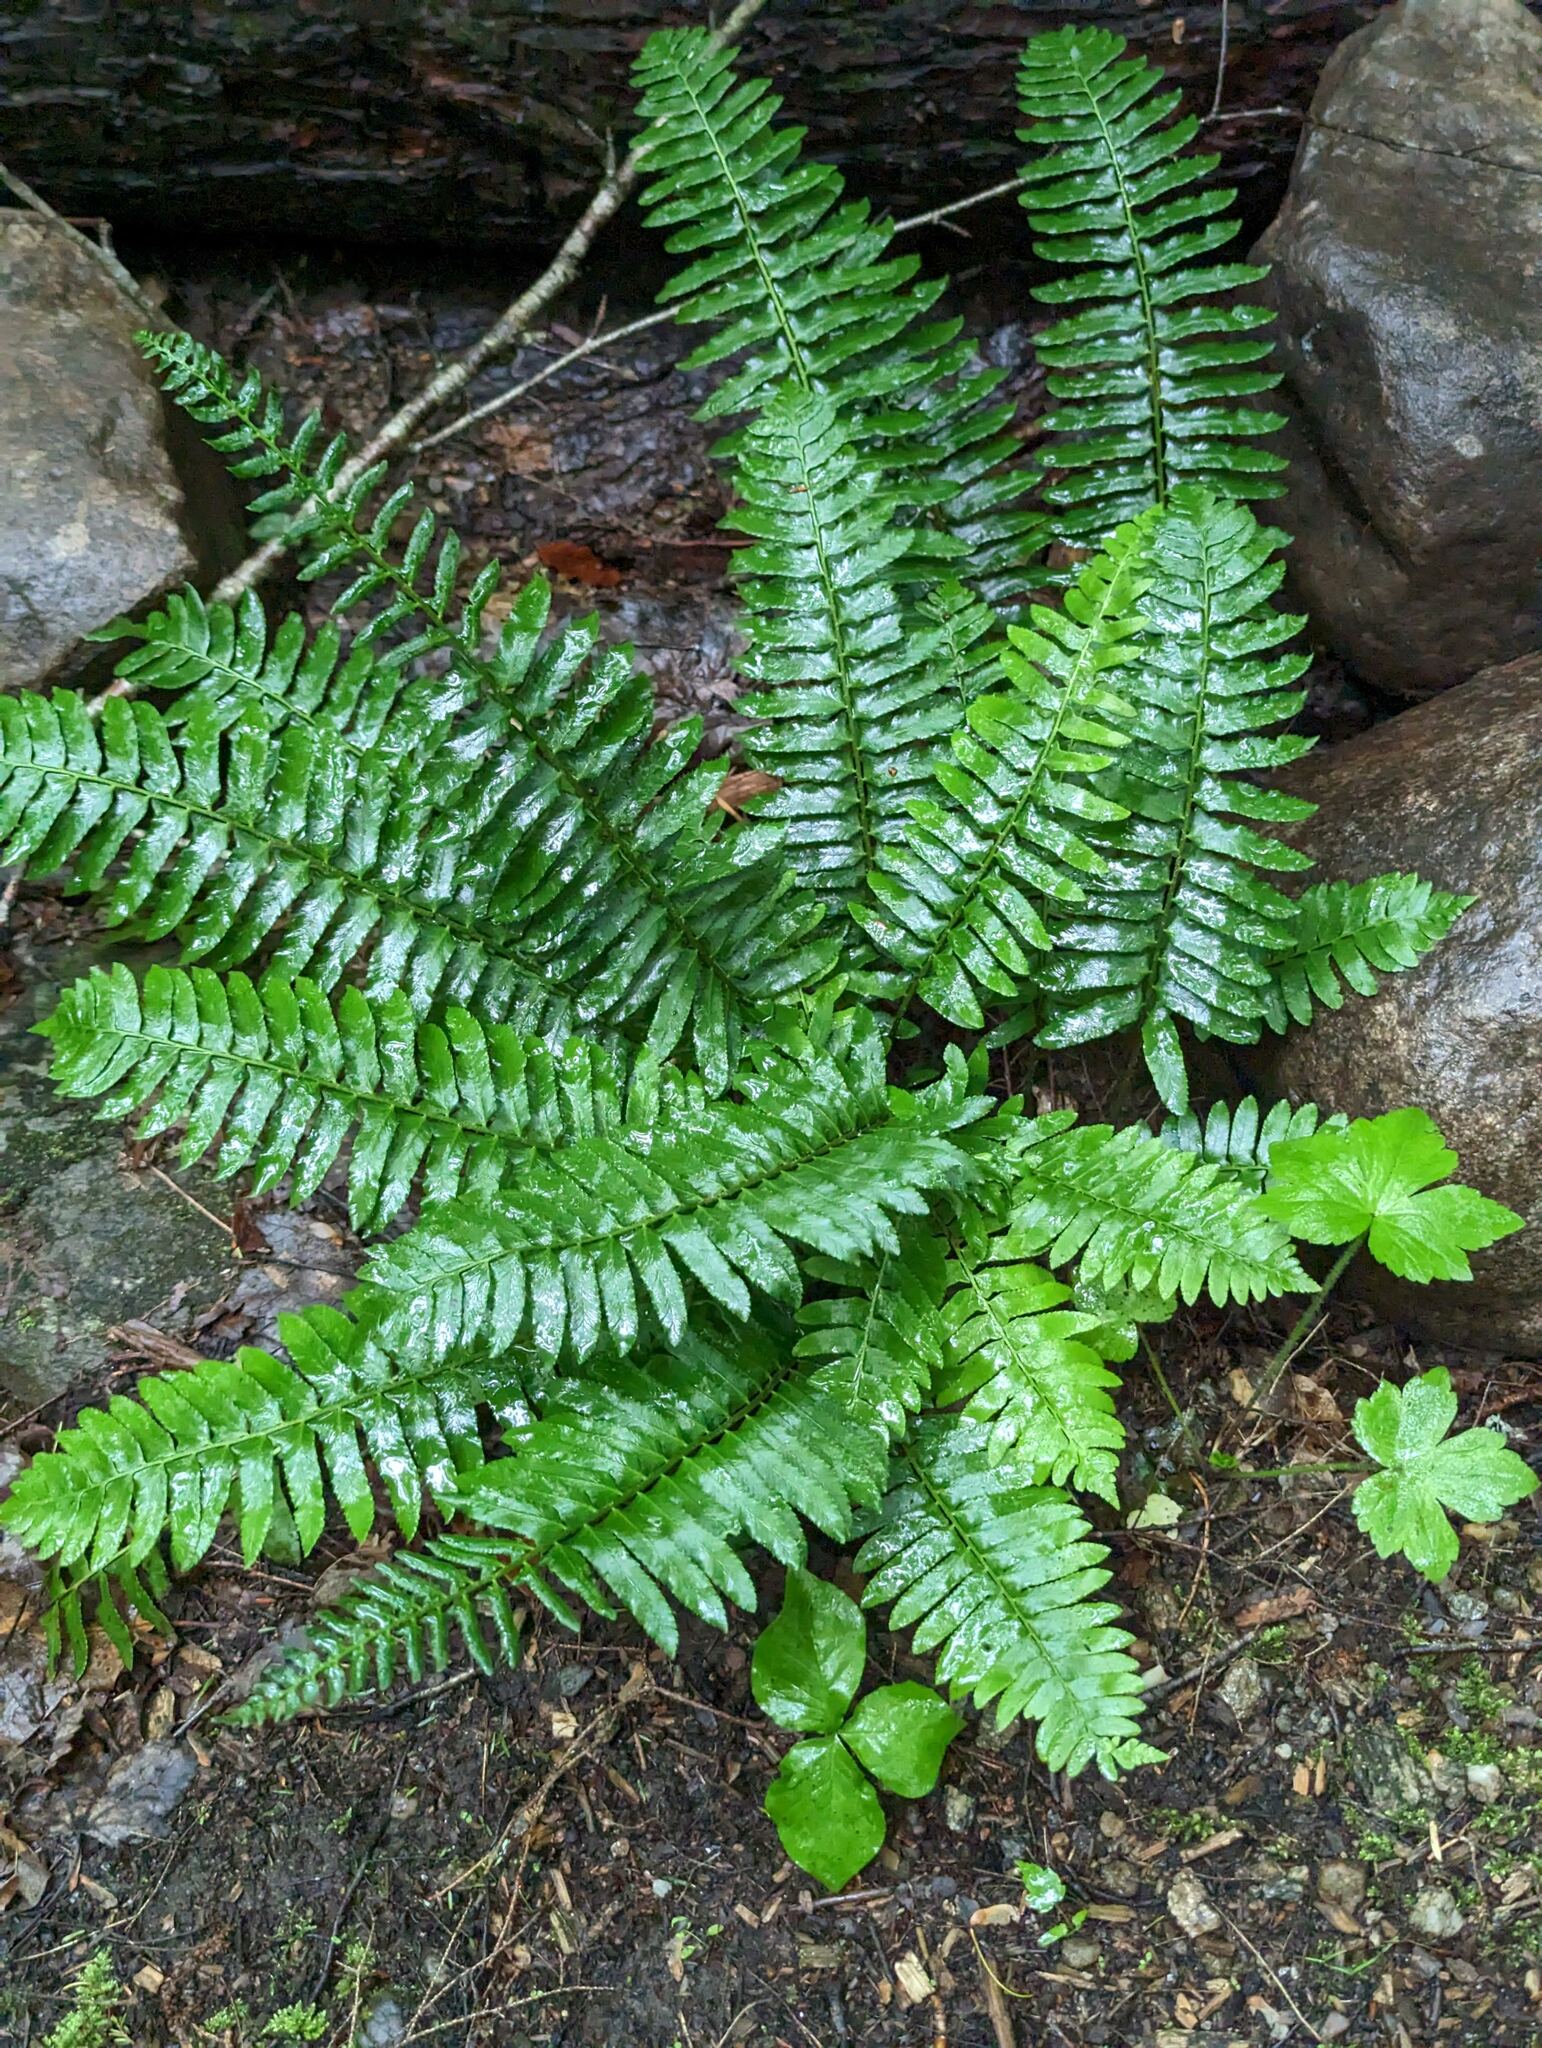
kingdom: Plantae
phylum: Tracheophyta
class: Polypodiopsida
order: Polypodiales
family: Dryopteridaceae
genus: Polystichum
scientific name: Polystichum acrostichoides
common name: Christmas fern
